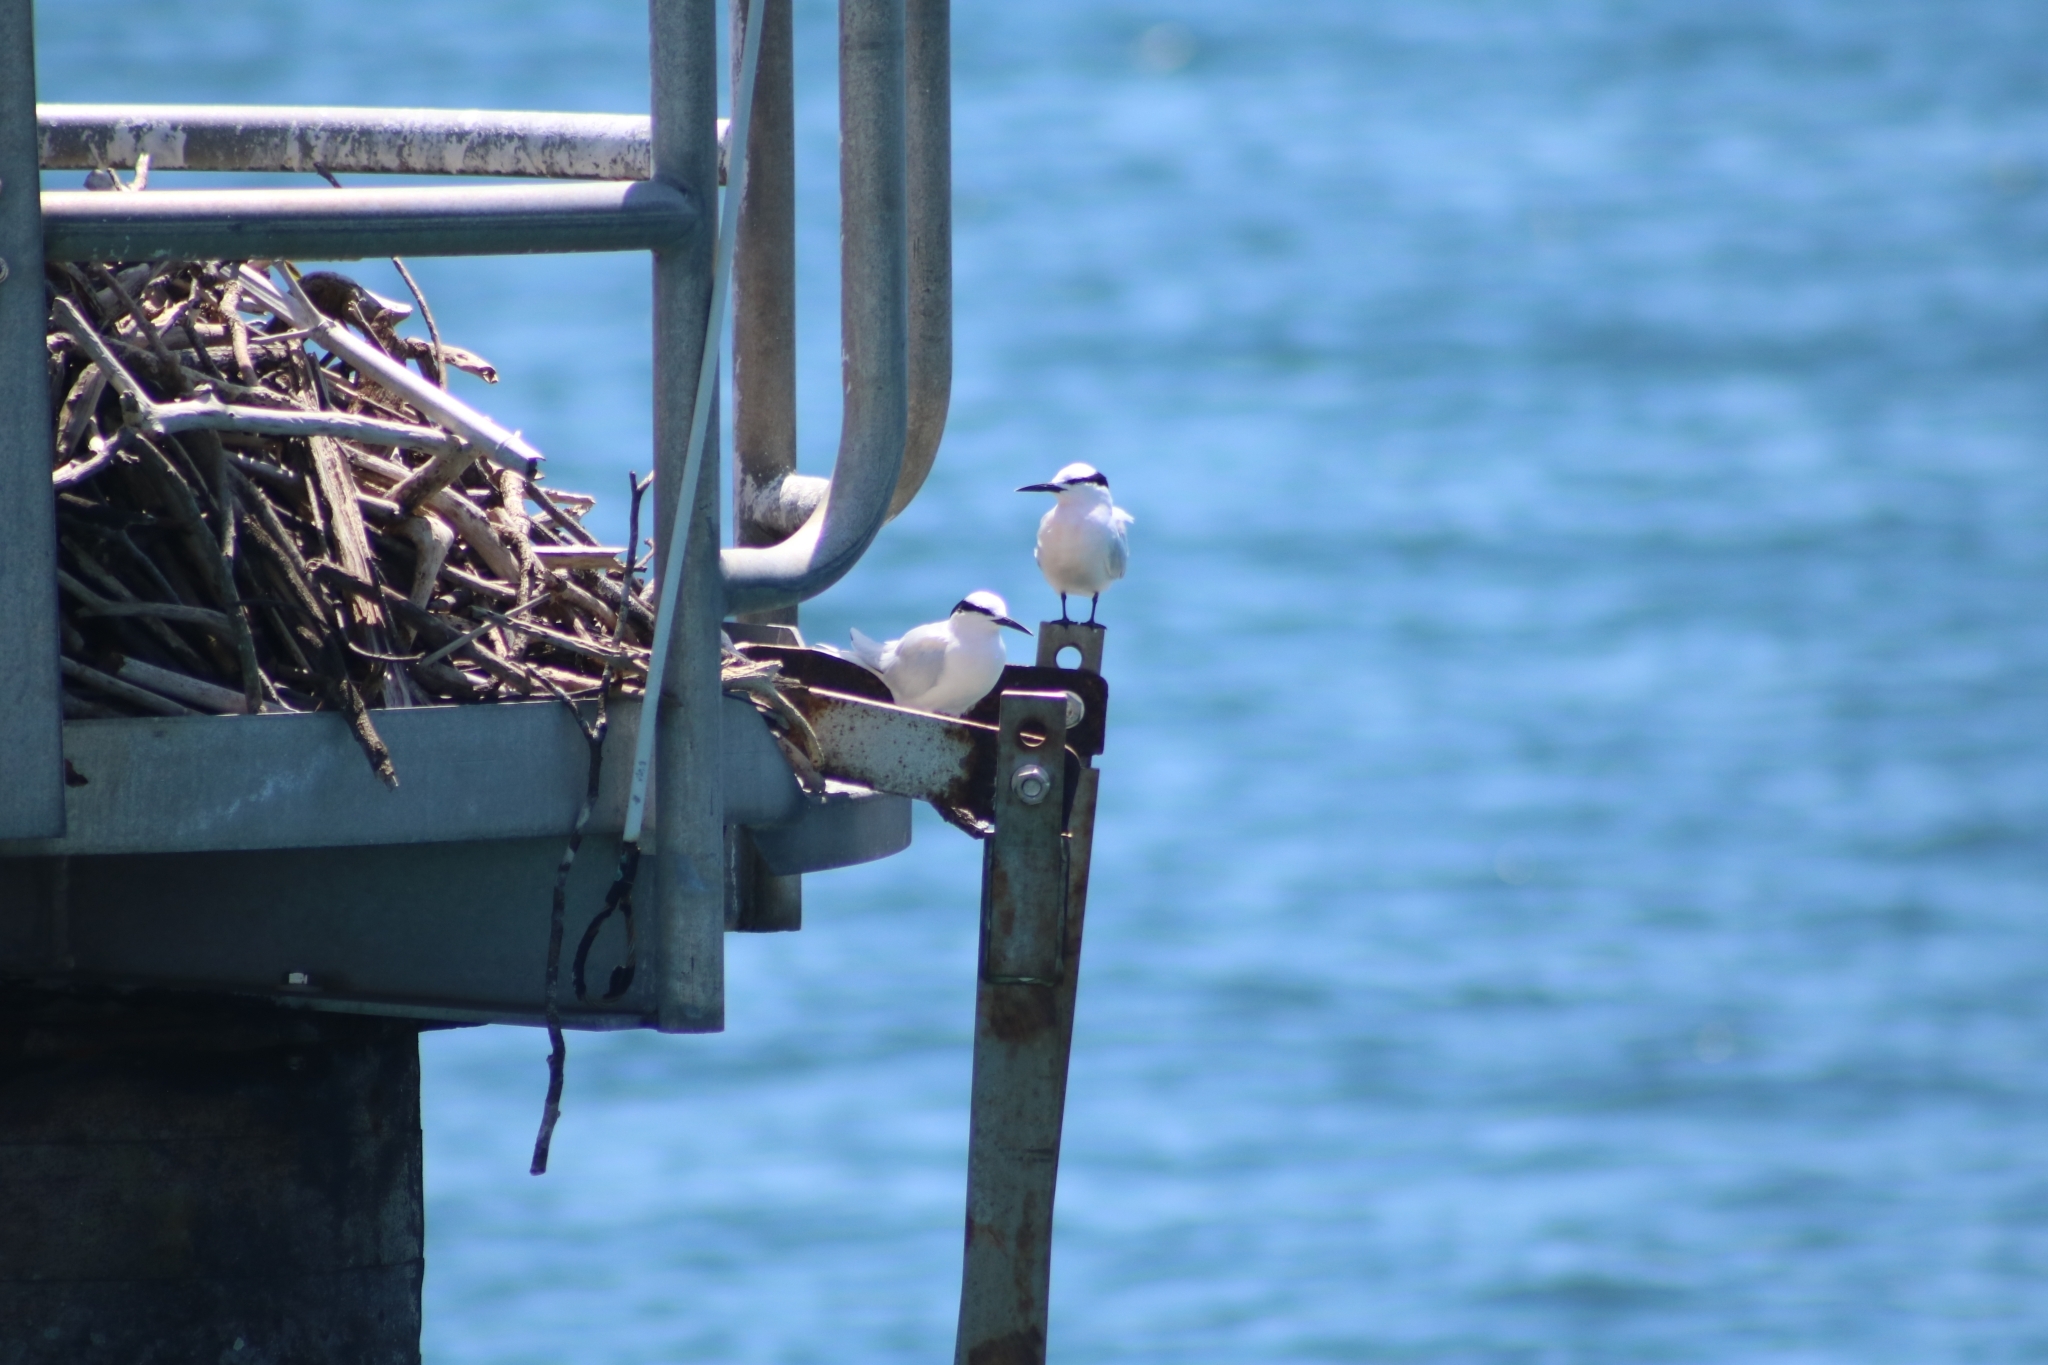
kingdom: Animalia
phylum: Chordata
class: Aves
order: Charadriiformes
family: Laridae
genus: Sterna
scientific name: Sterna sumatrana
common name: Black-naped tern
